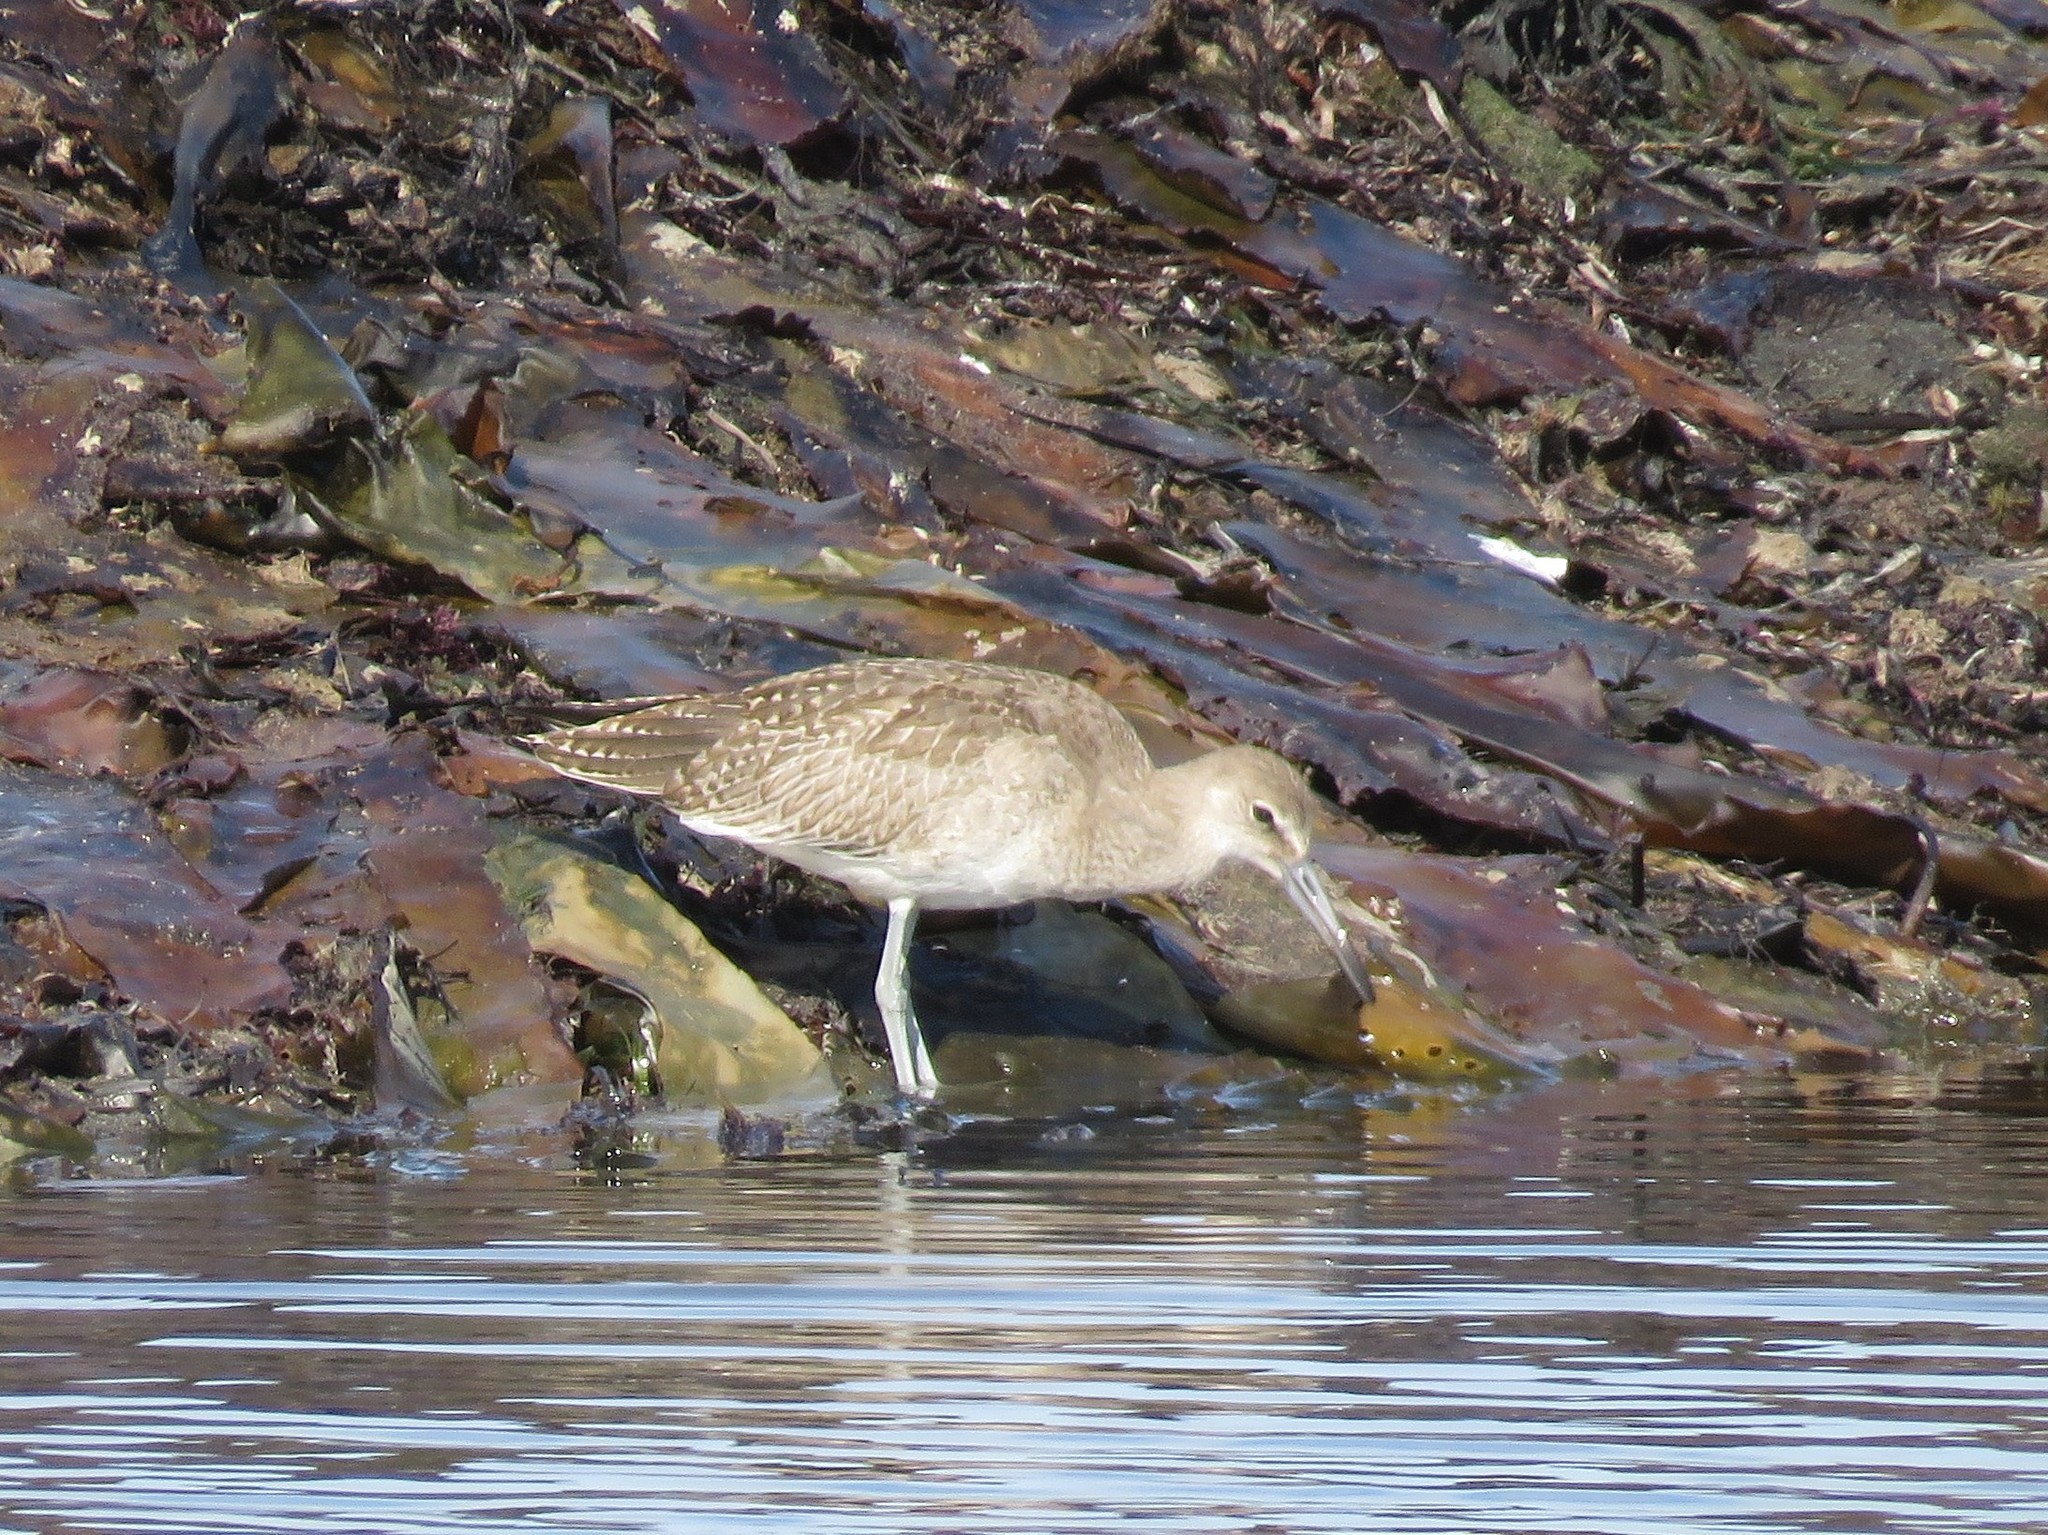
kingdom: Animalia
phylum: Chordata
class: Aves
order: Charadriiformes
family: Scolopacidae
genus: Tringa
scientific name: Tringa semipalmata
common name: Willet
